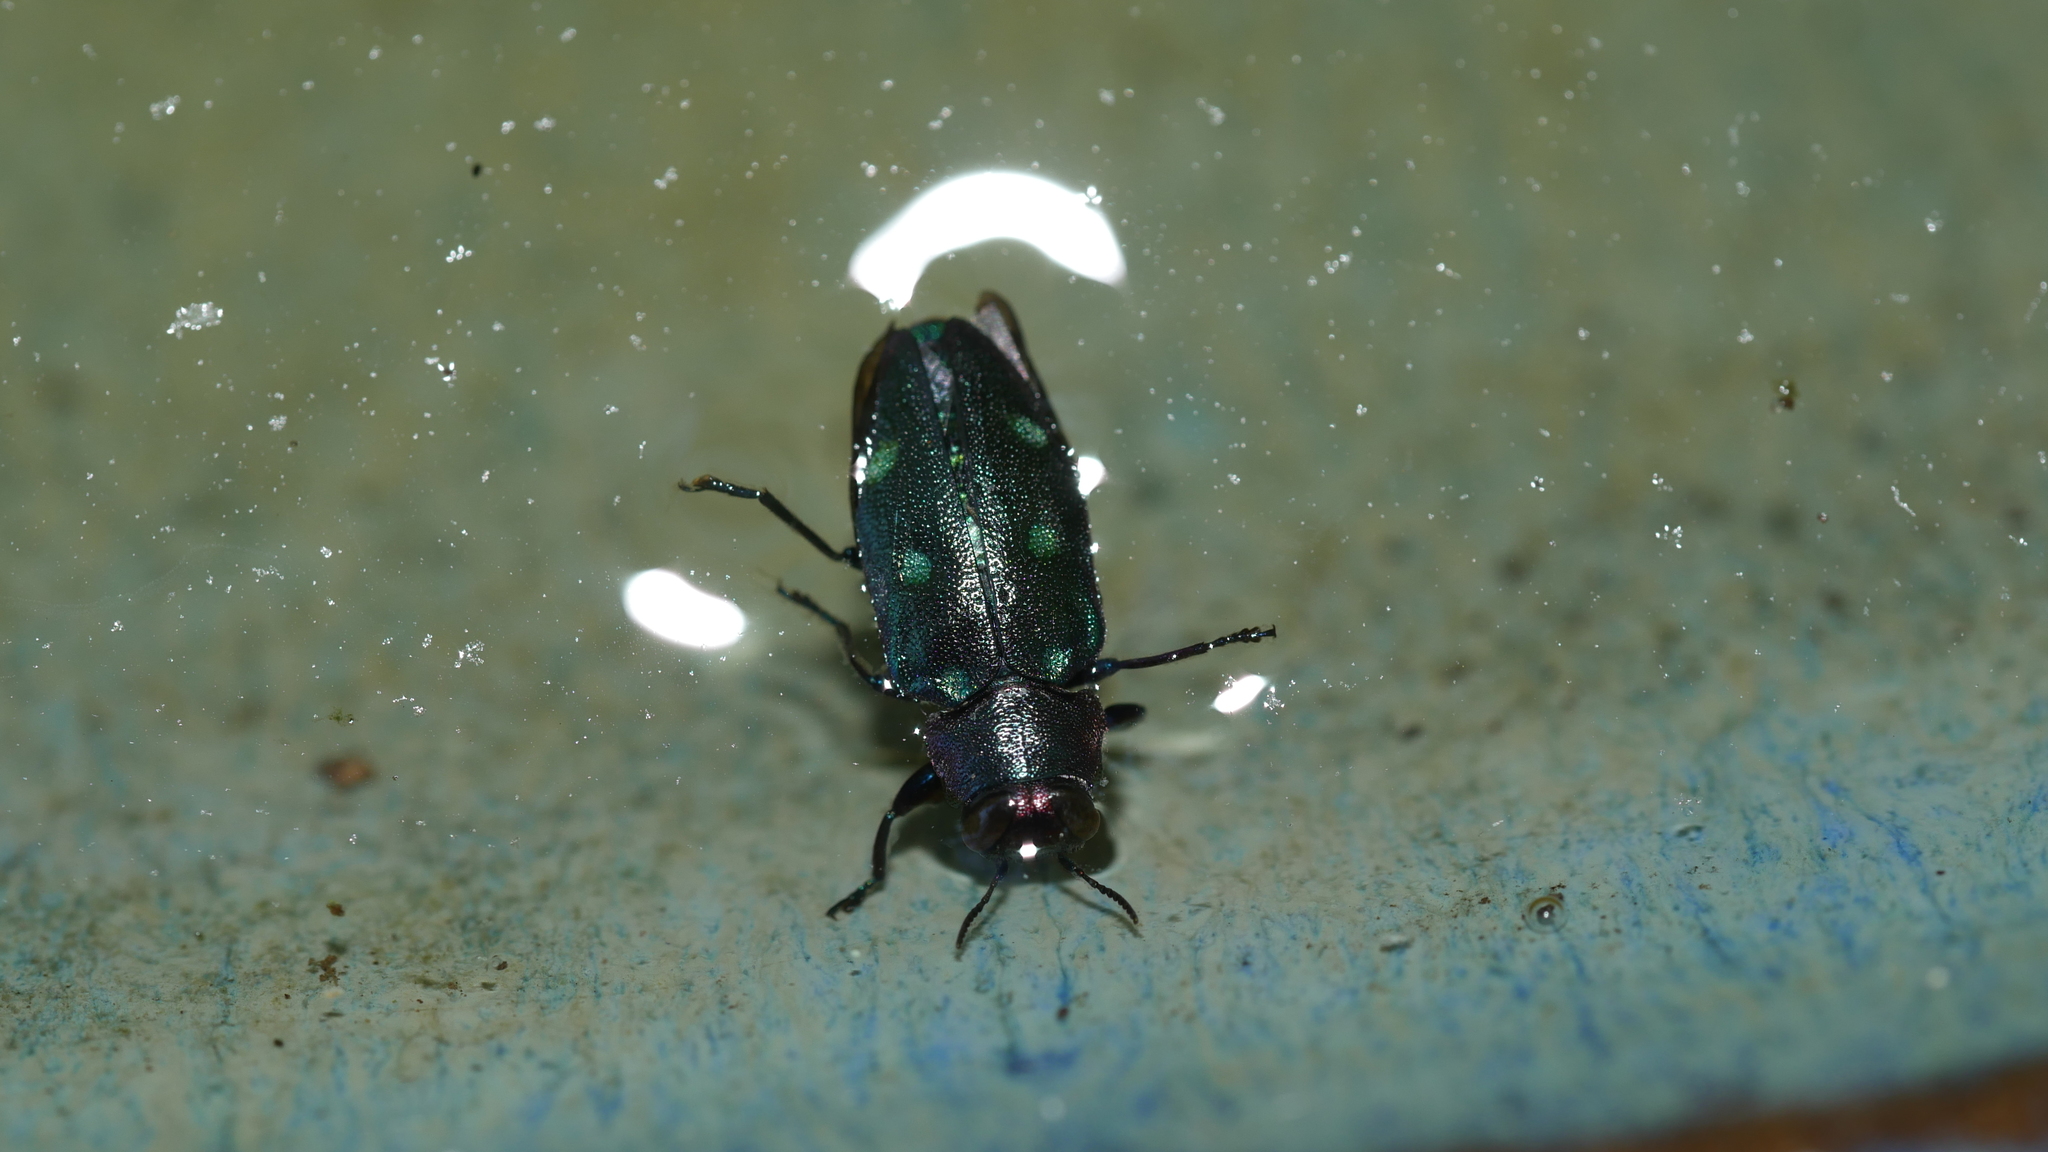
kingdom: Animalia
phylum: Arthropoda
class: Insecta
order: Coleoptera
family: Buprestidae
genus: Chrysobothris
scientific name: Chrysobothris azurea
